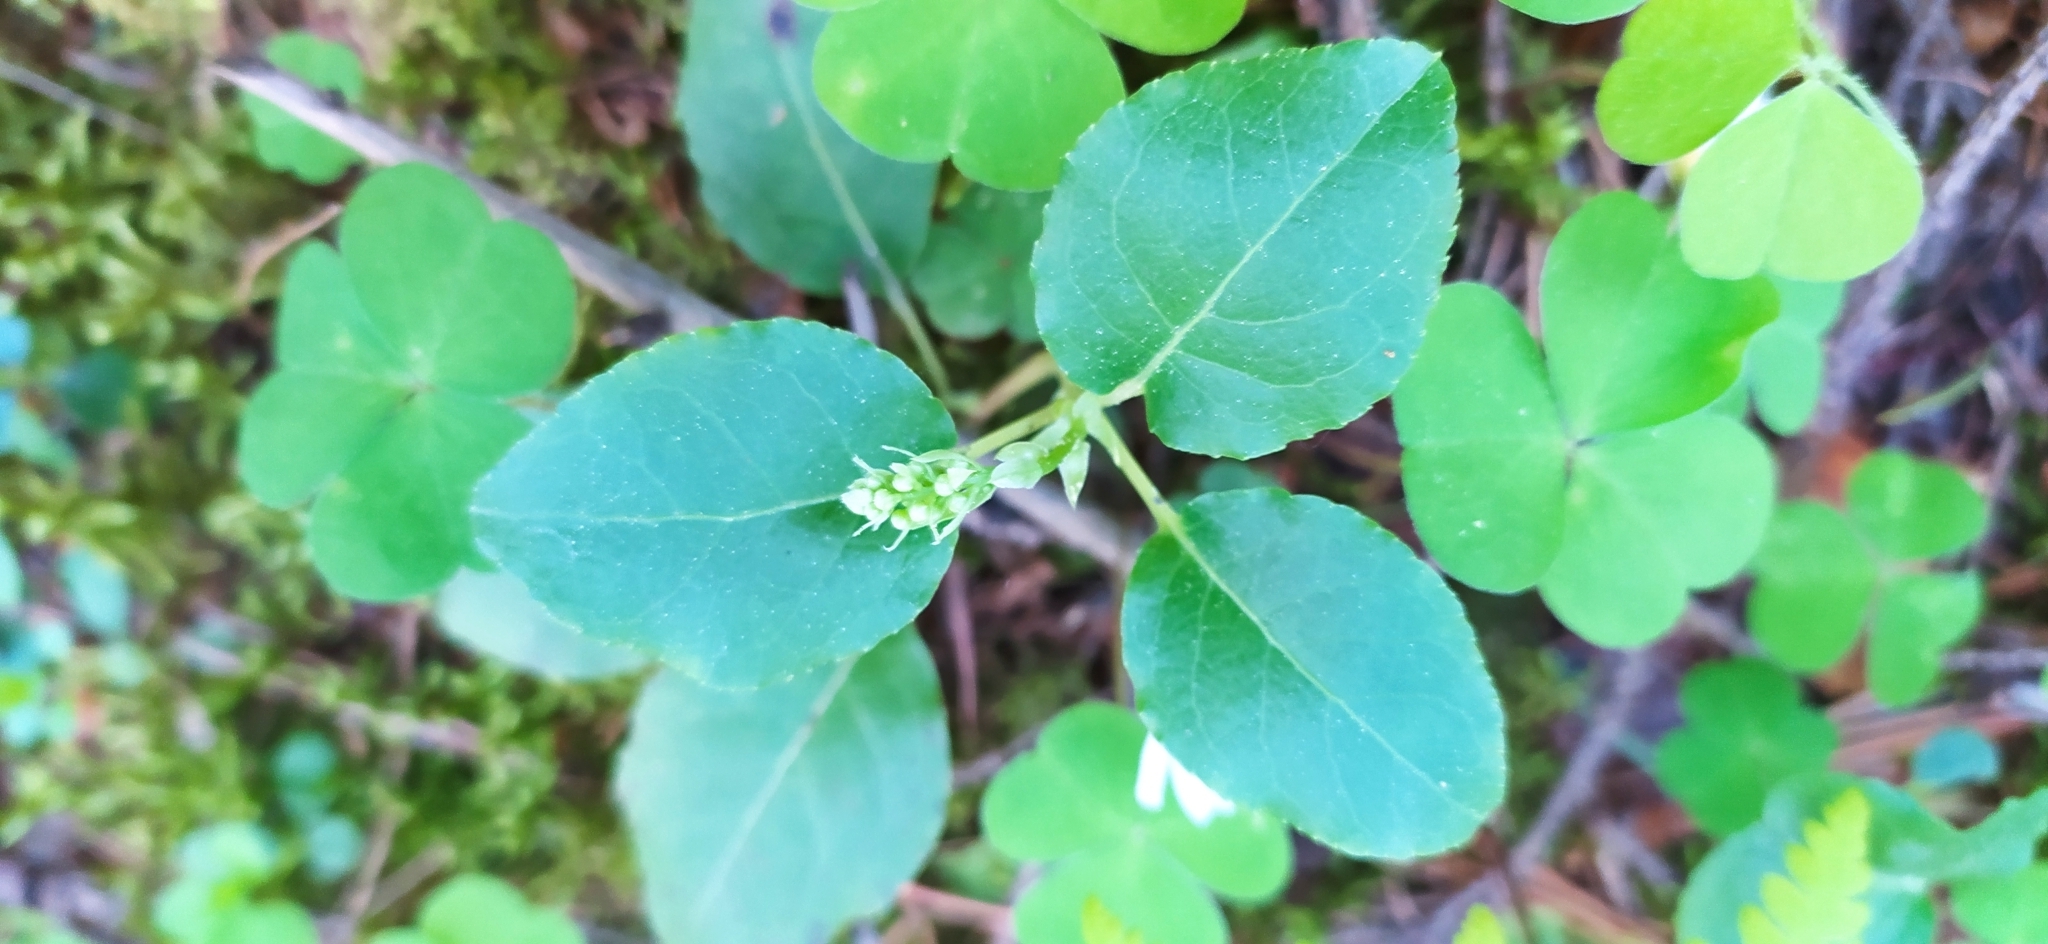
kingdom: Plantae
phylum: Tracheophyta
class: Magnoliopsida
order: Ericales
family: Ericaceae
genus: Orthilia
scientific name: Orthilia secunda
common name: One-sided orthilia
